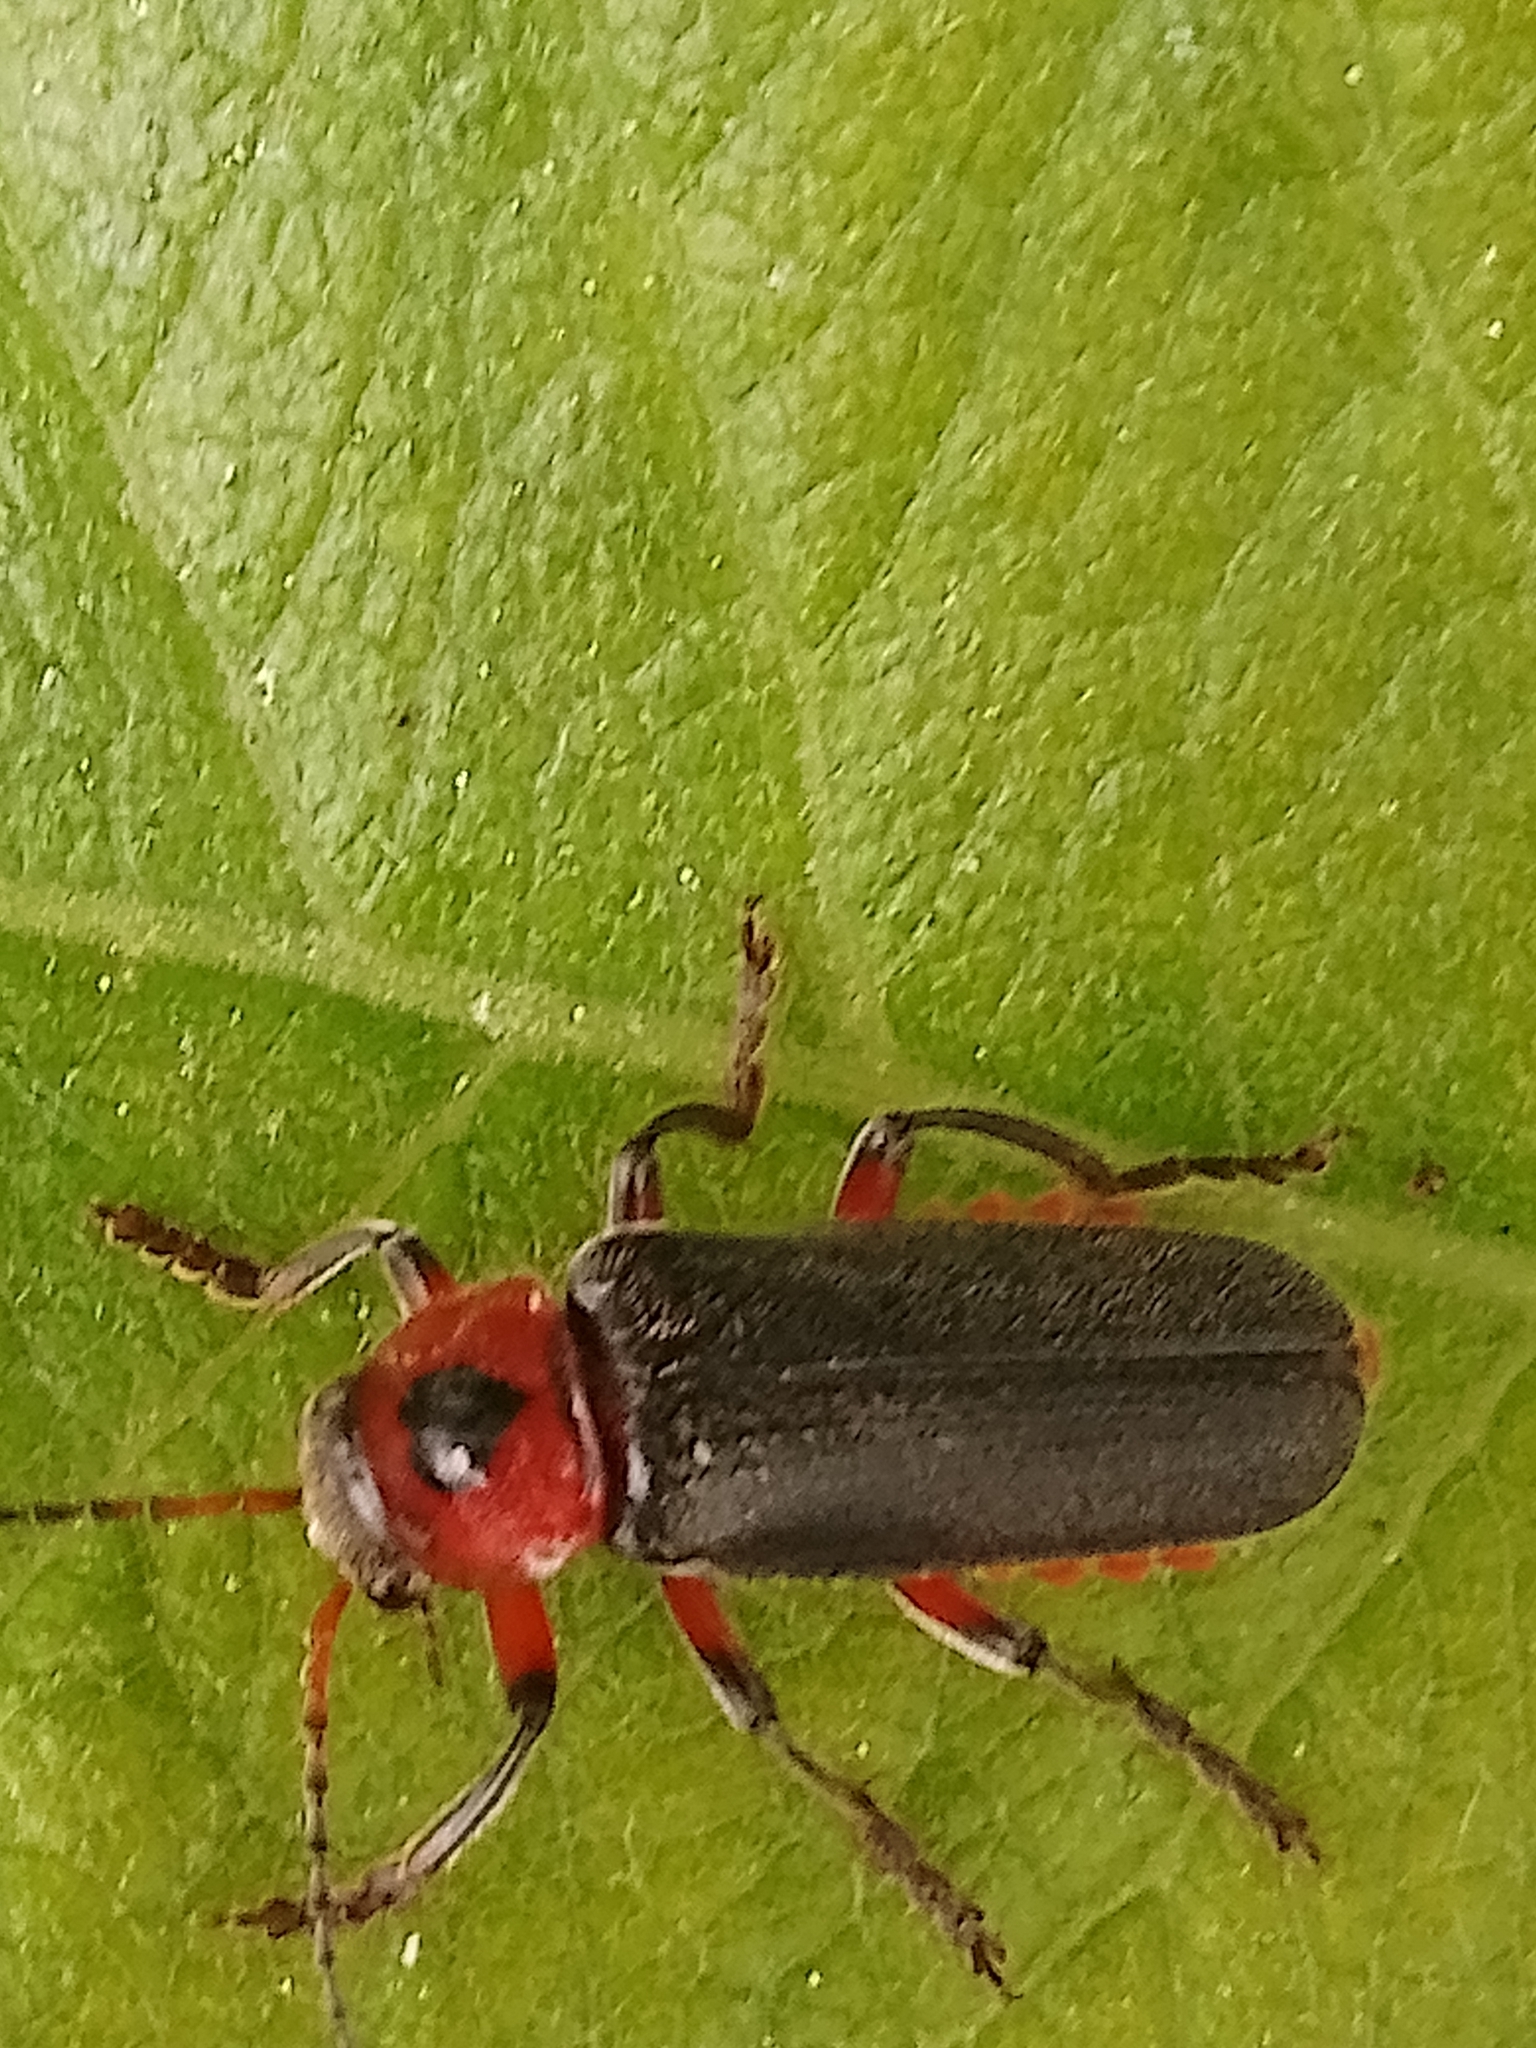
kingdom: Animalia
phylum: Arthropoda
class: Insecta
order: Coleoptera
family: Cantharidae
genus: Cantharis
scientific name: Cantharis rustica
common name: Soldier beetle
